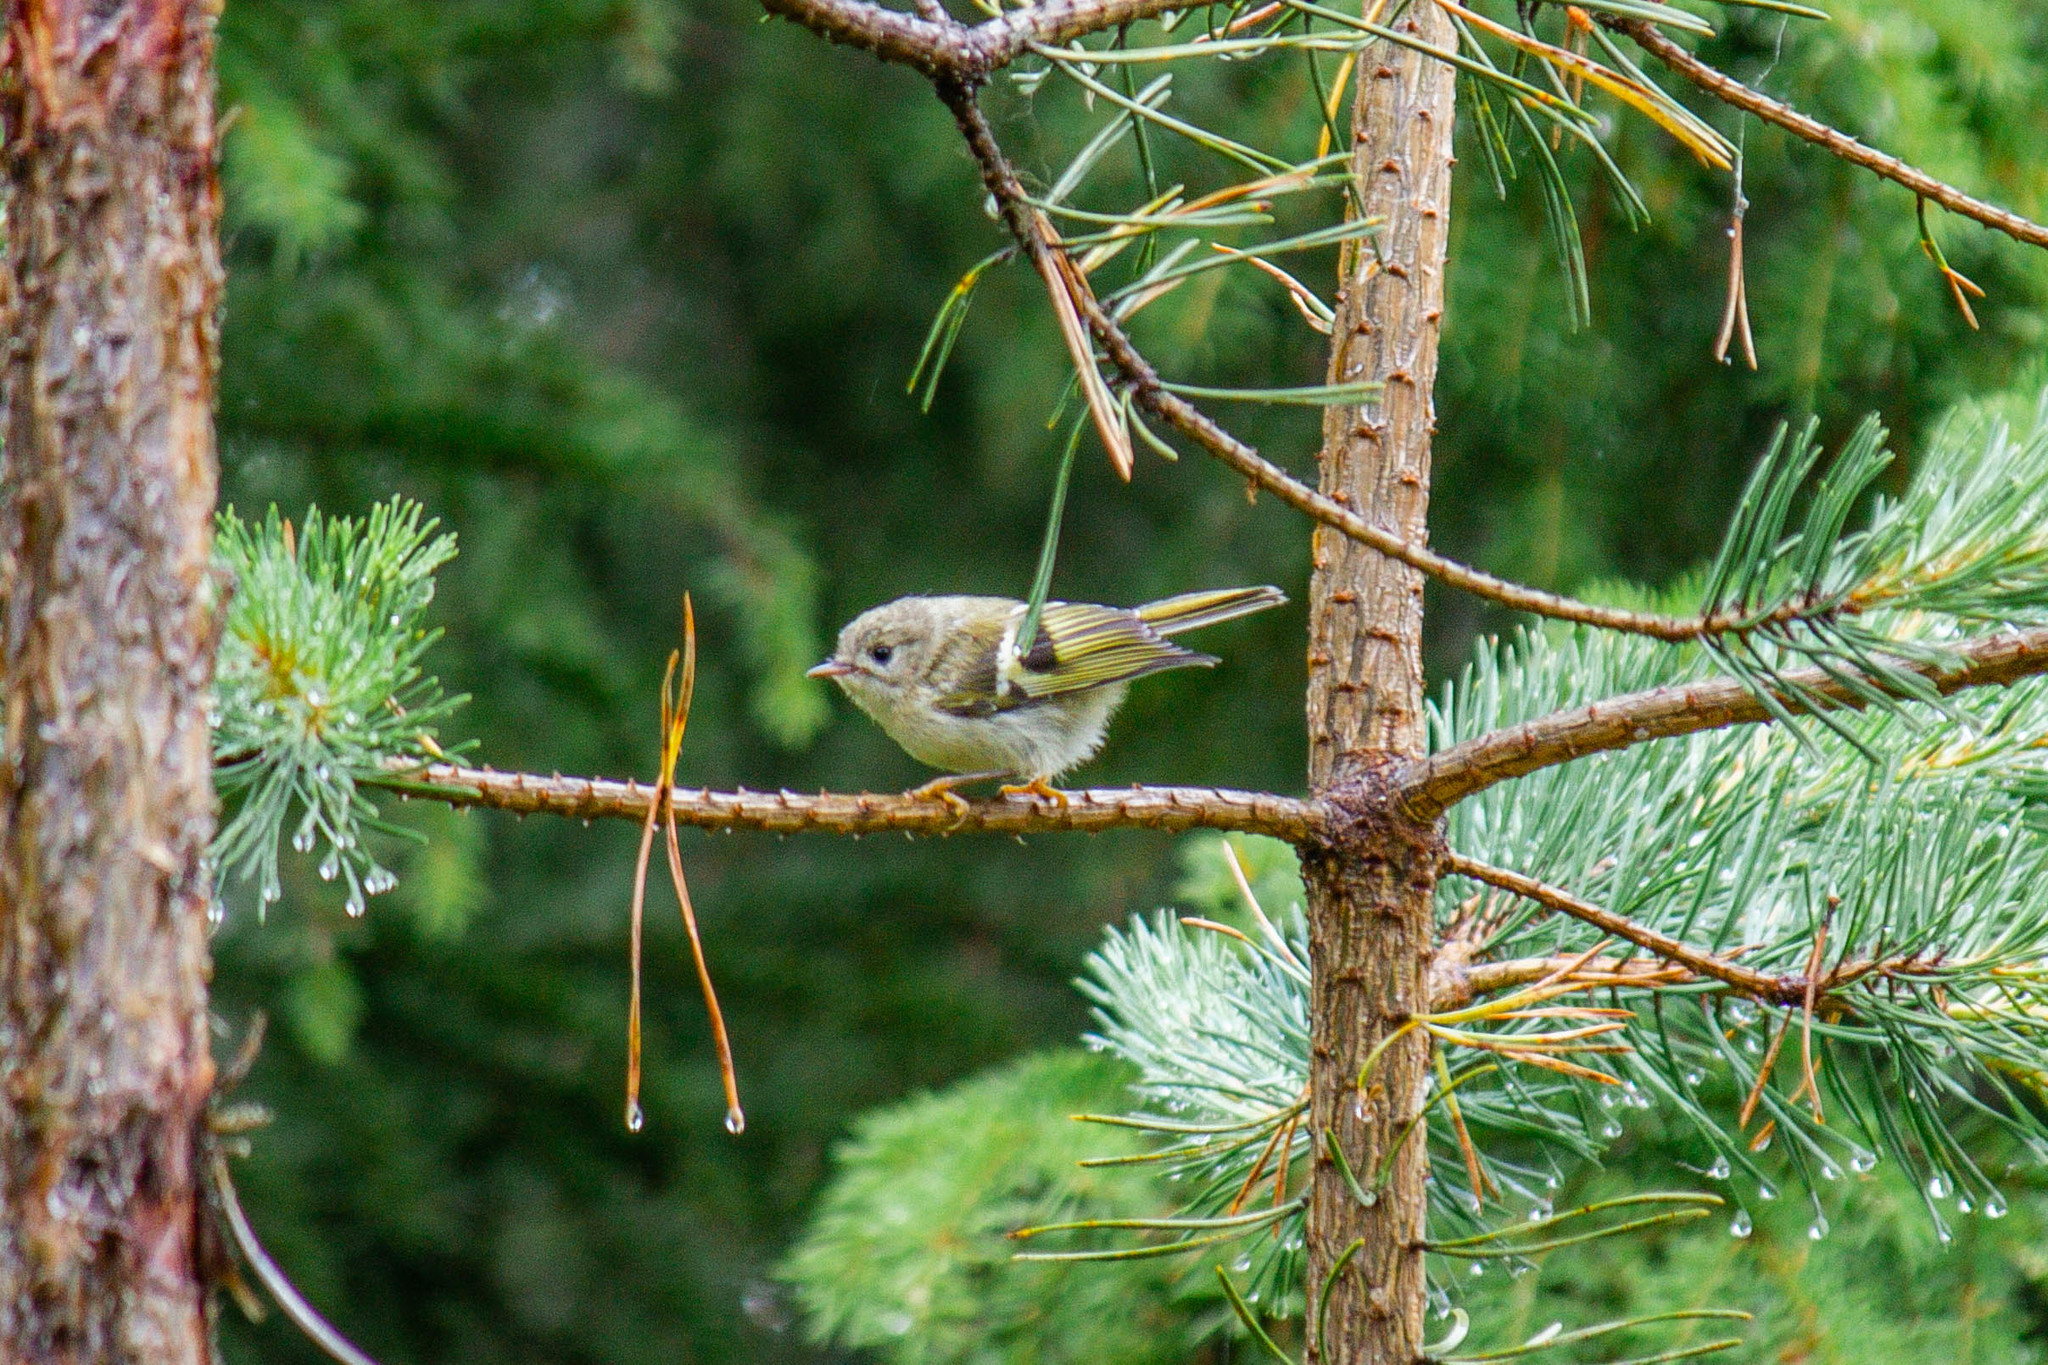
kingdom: Animalia
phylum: Chordata
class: Aves
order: Passeriformes
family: Regulidae
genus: Regulus
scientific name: Regulus regulus
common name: Goldcrest
